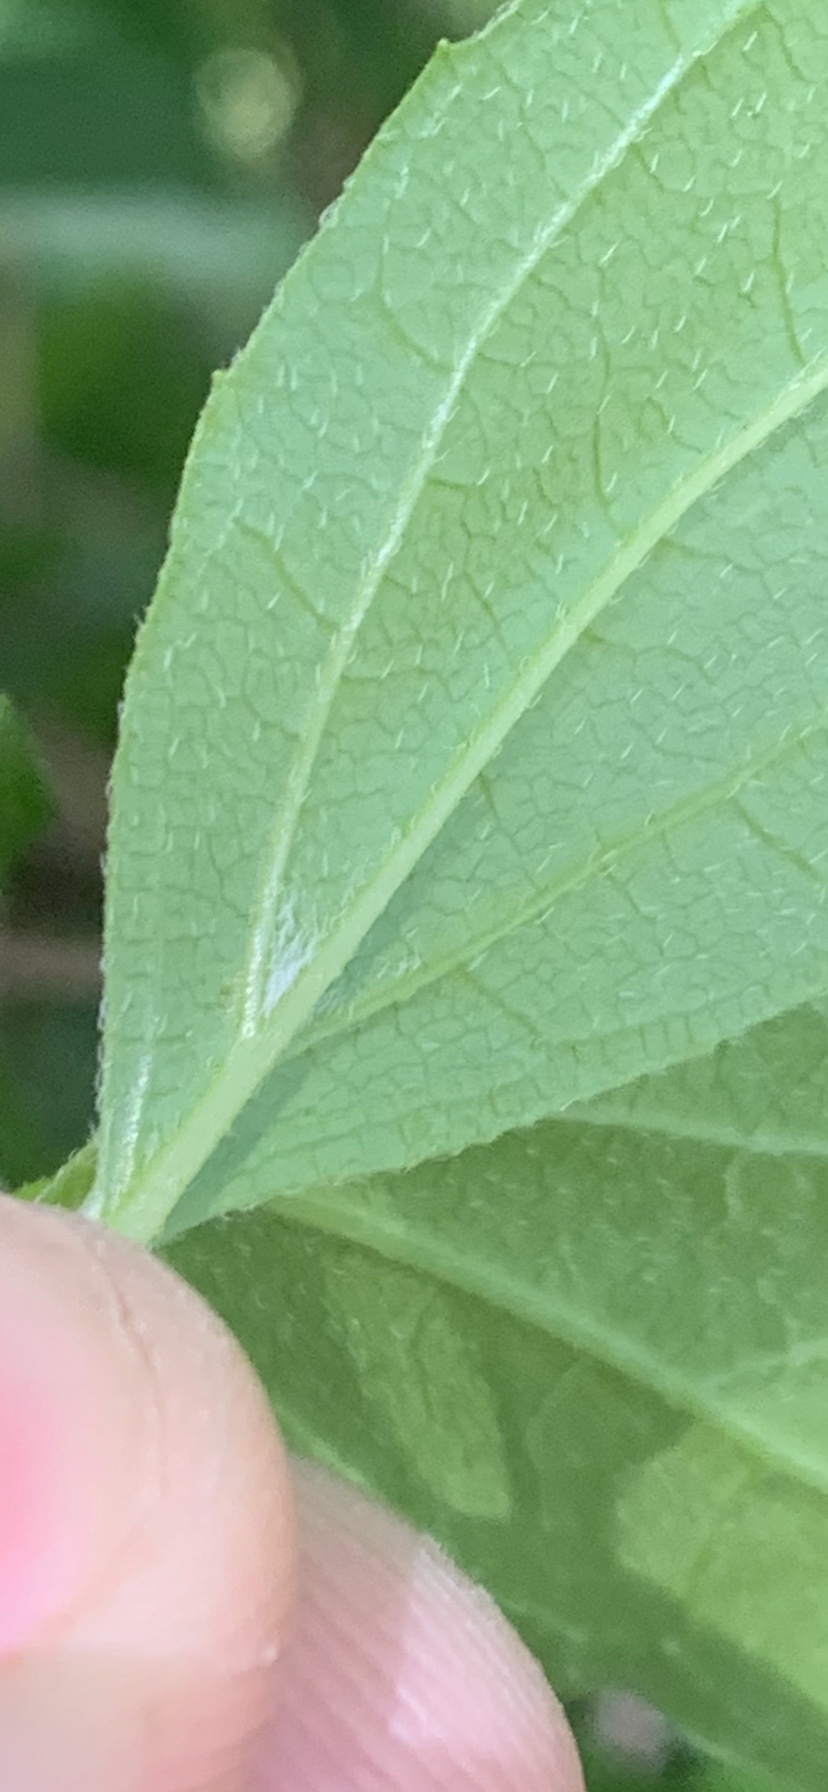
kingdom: Plantae
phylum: Tracheophyta
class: Magnoliopsida
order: Cornales
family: Hydrangeaceae
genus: Philadelphus
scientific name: Philadelphus lewisii
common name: Lewis's mock orange
